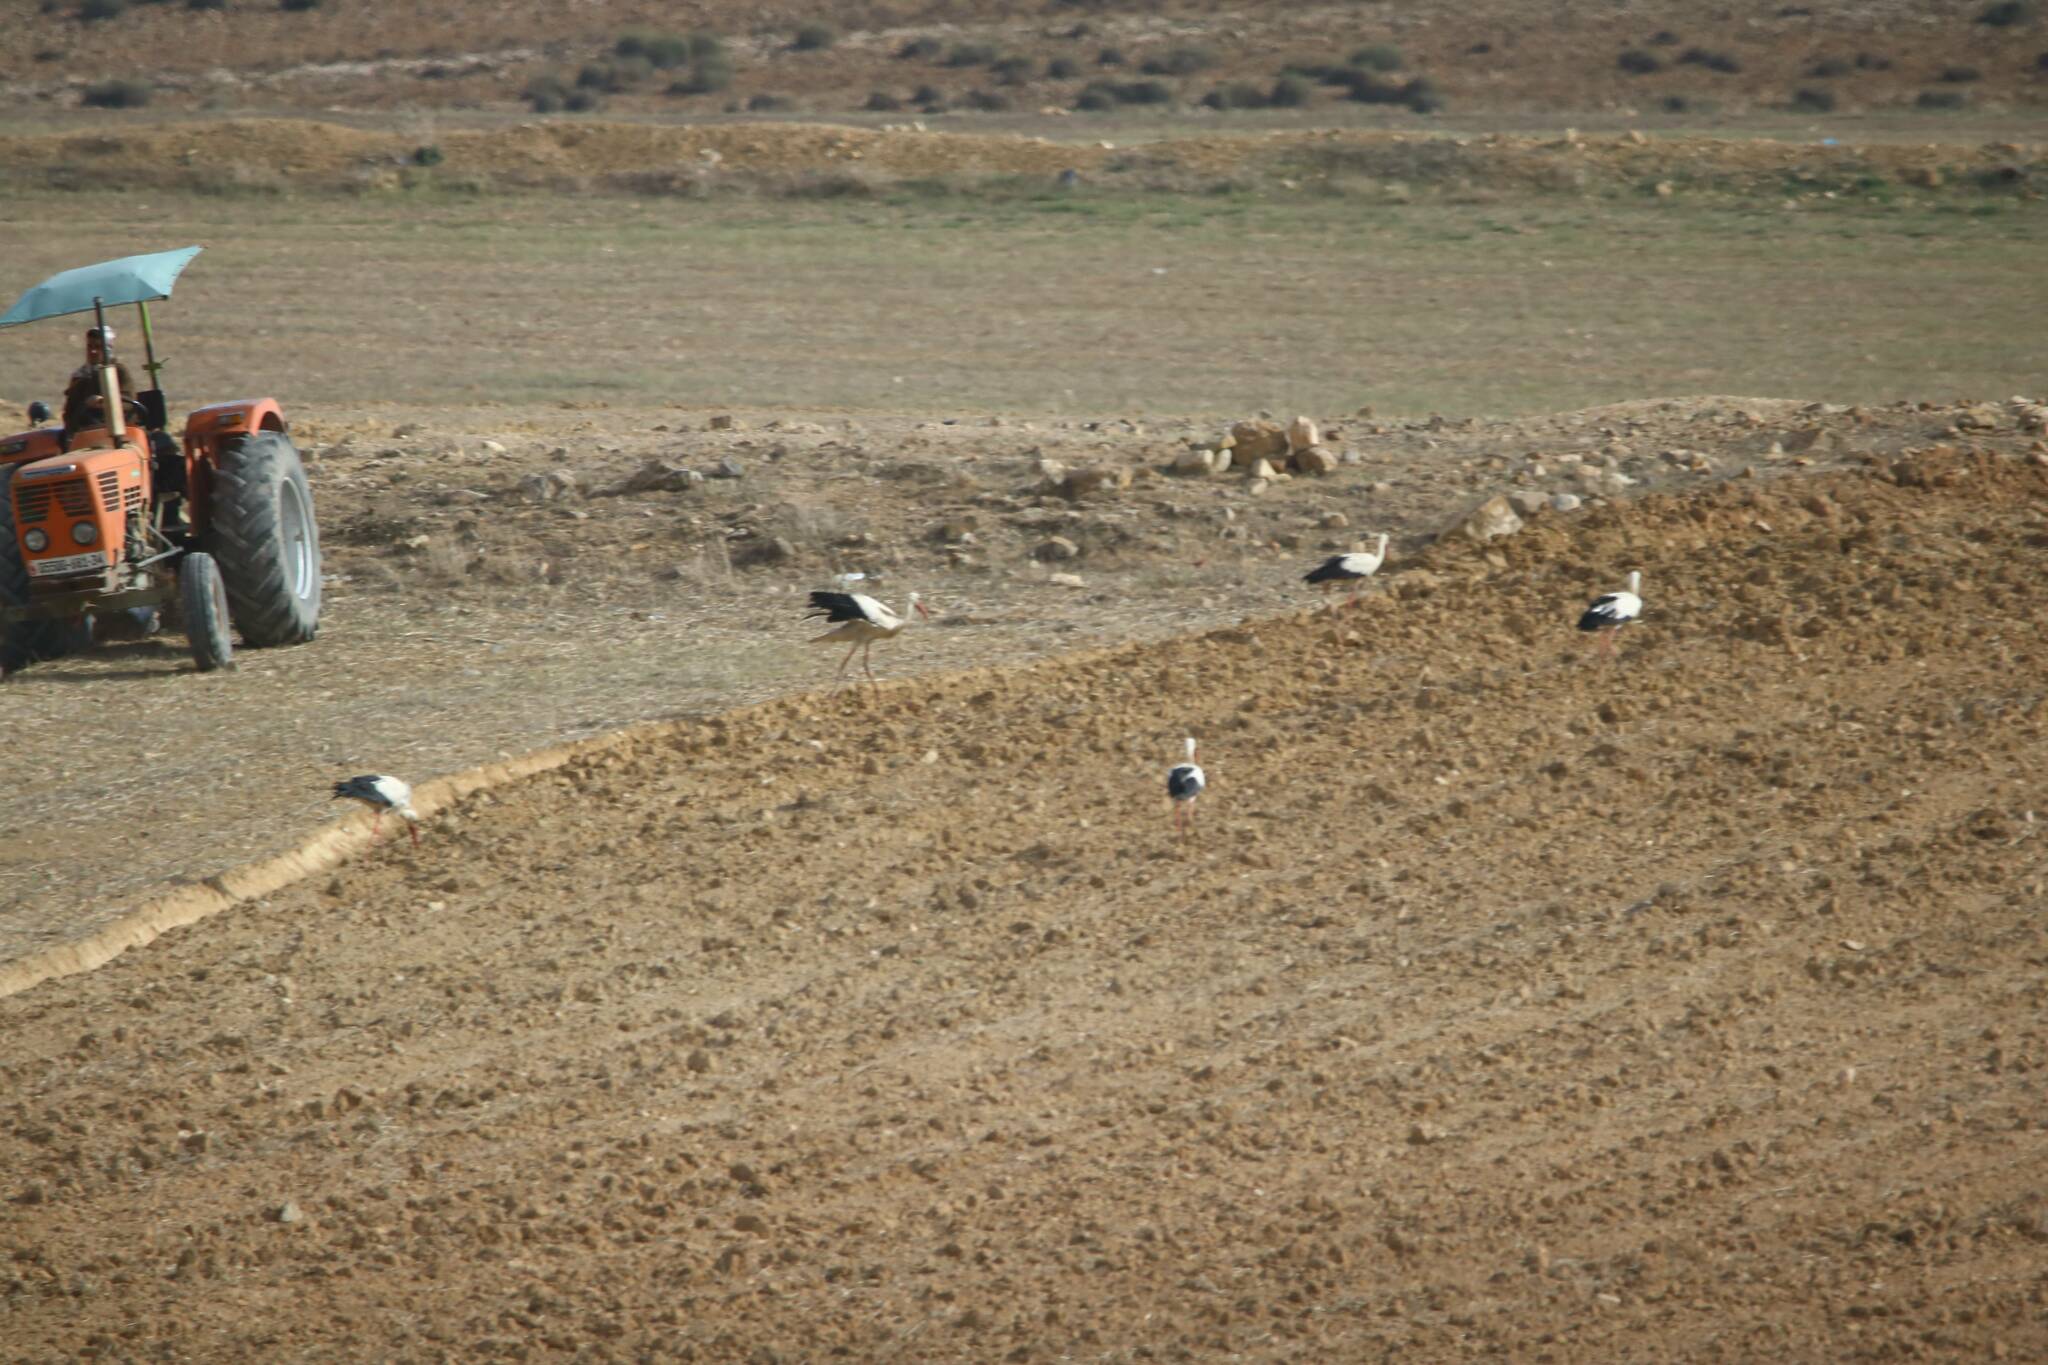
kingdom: Animalia
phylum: Chordata
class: Aves
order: Ciconiiformes
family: Ciconiidae
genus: Ciconia
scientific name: Ciconia ciconia
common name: White stork
